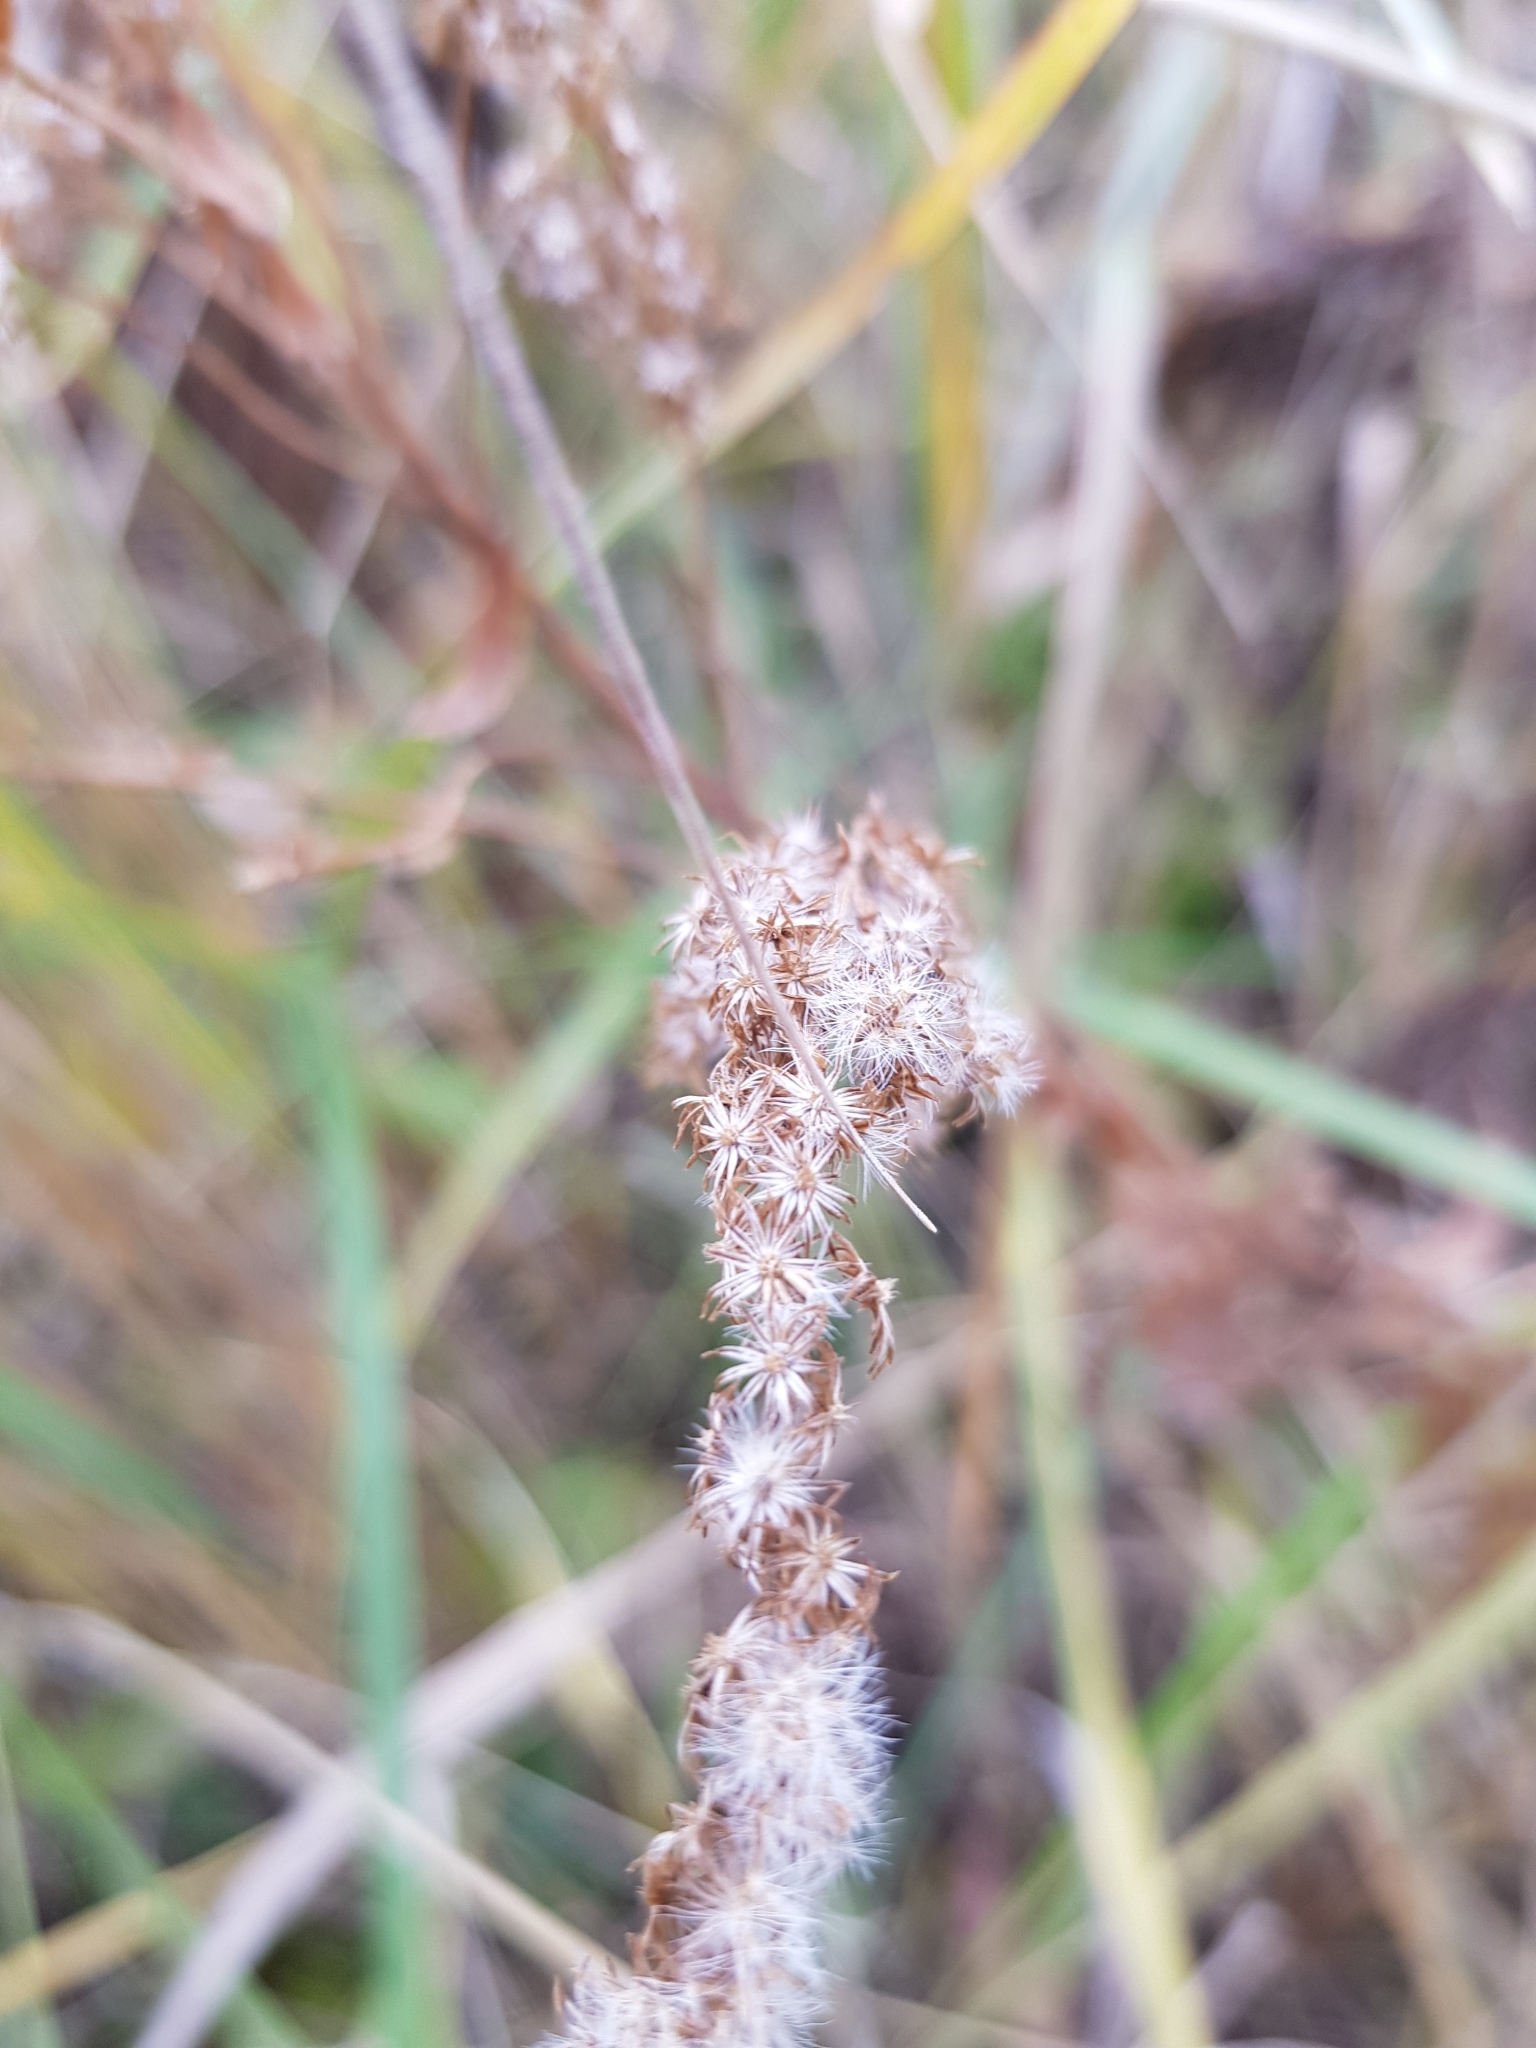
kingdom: Plantae
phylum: Tracheophyta
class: Magnoliopsida
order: Asterales
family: Asteraceae
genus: Solidago
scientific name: Solidago canadensis
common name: Canada goldenrod
